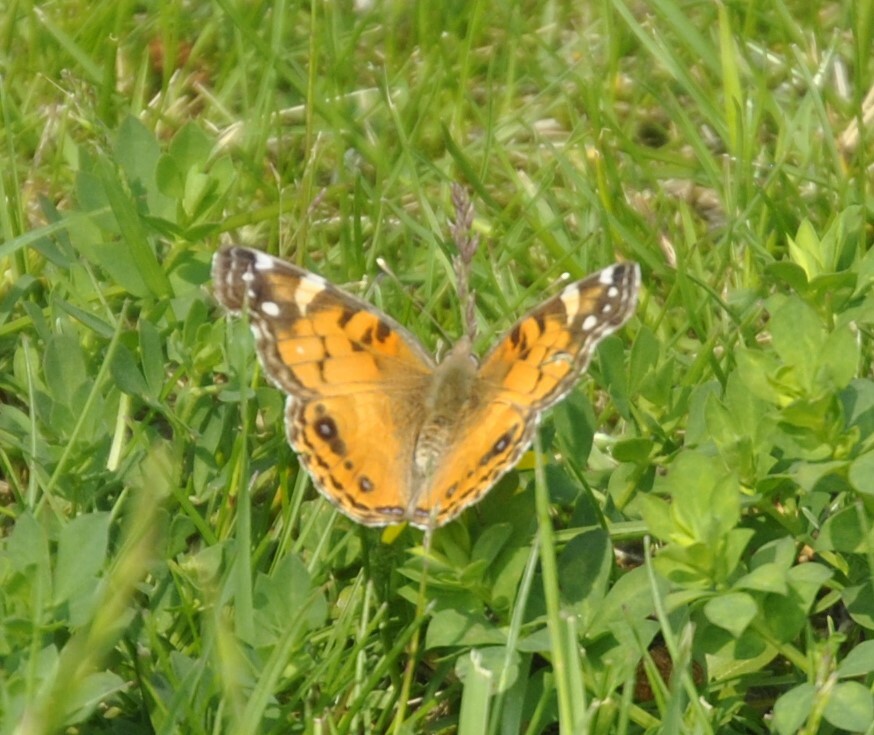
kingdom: Animalia
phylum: Arthropoda
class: Insecta
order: Lepidoptera
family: Nymphalidae
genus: Vanessa
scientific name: Vanessa virginiensis
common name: American lady
